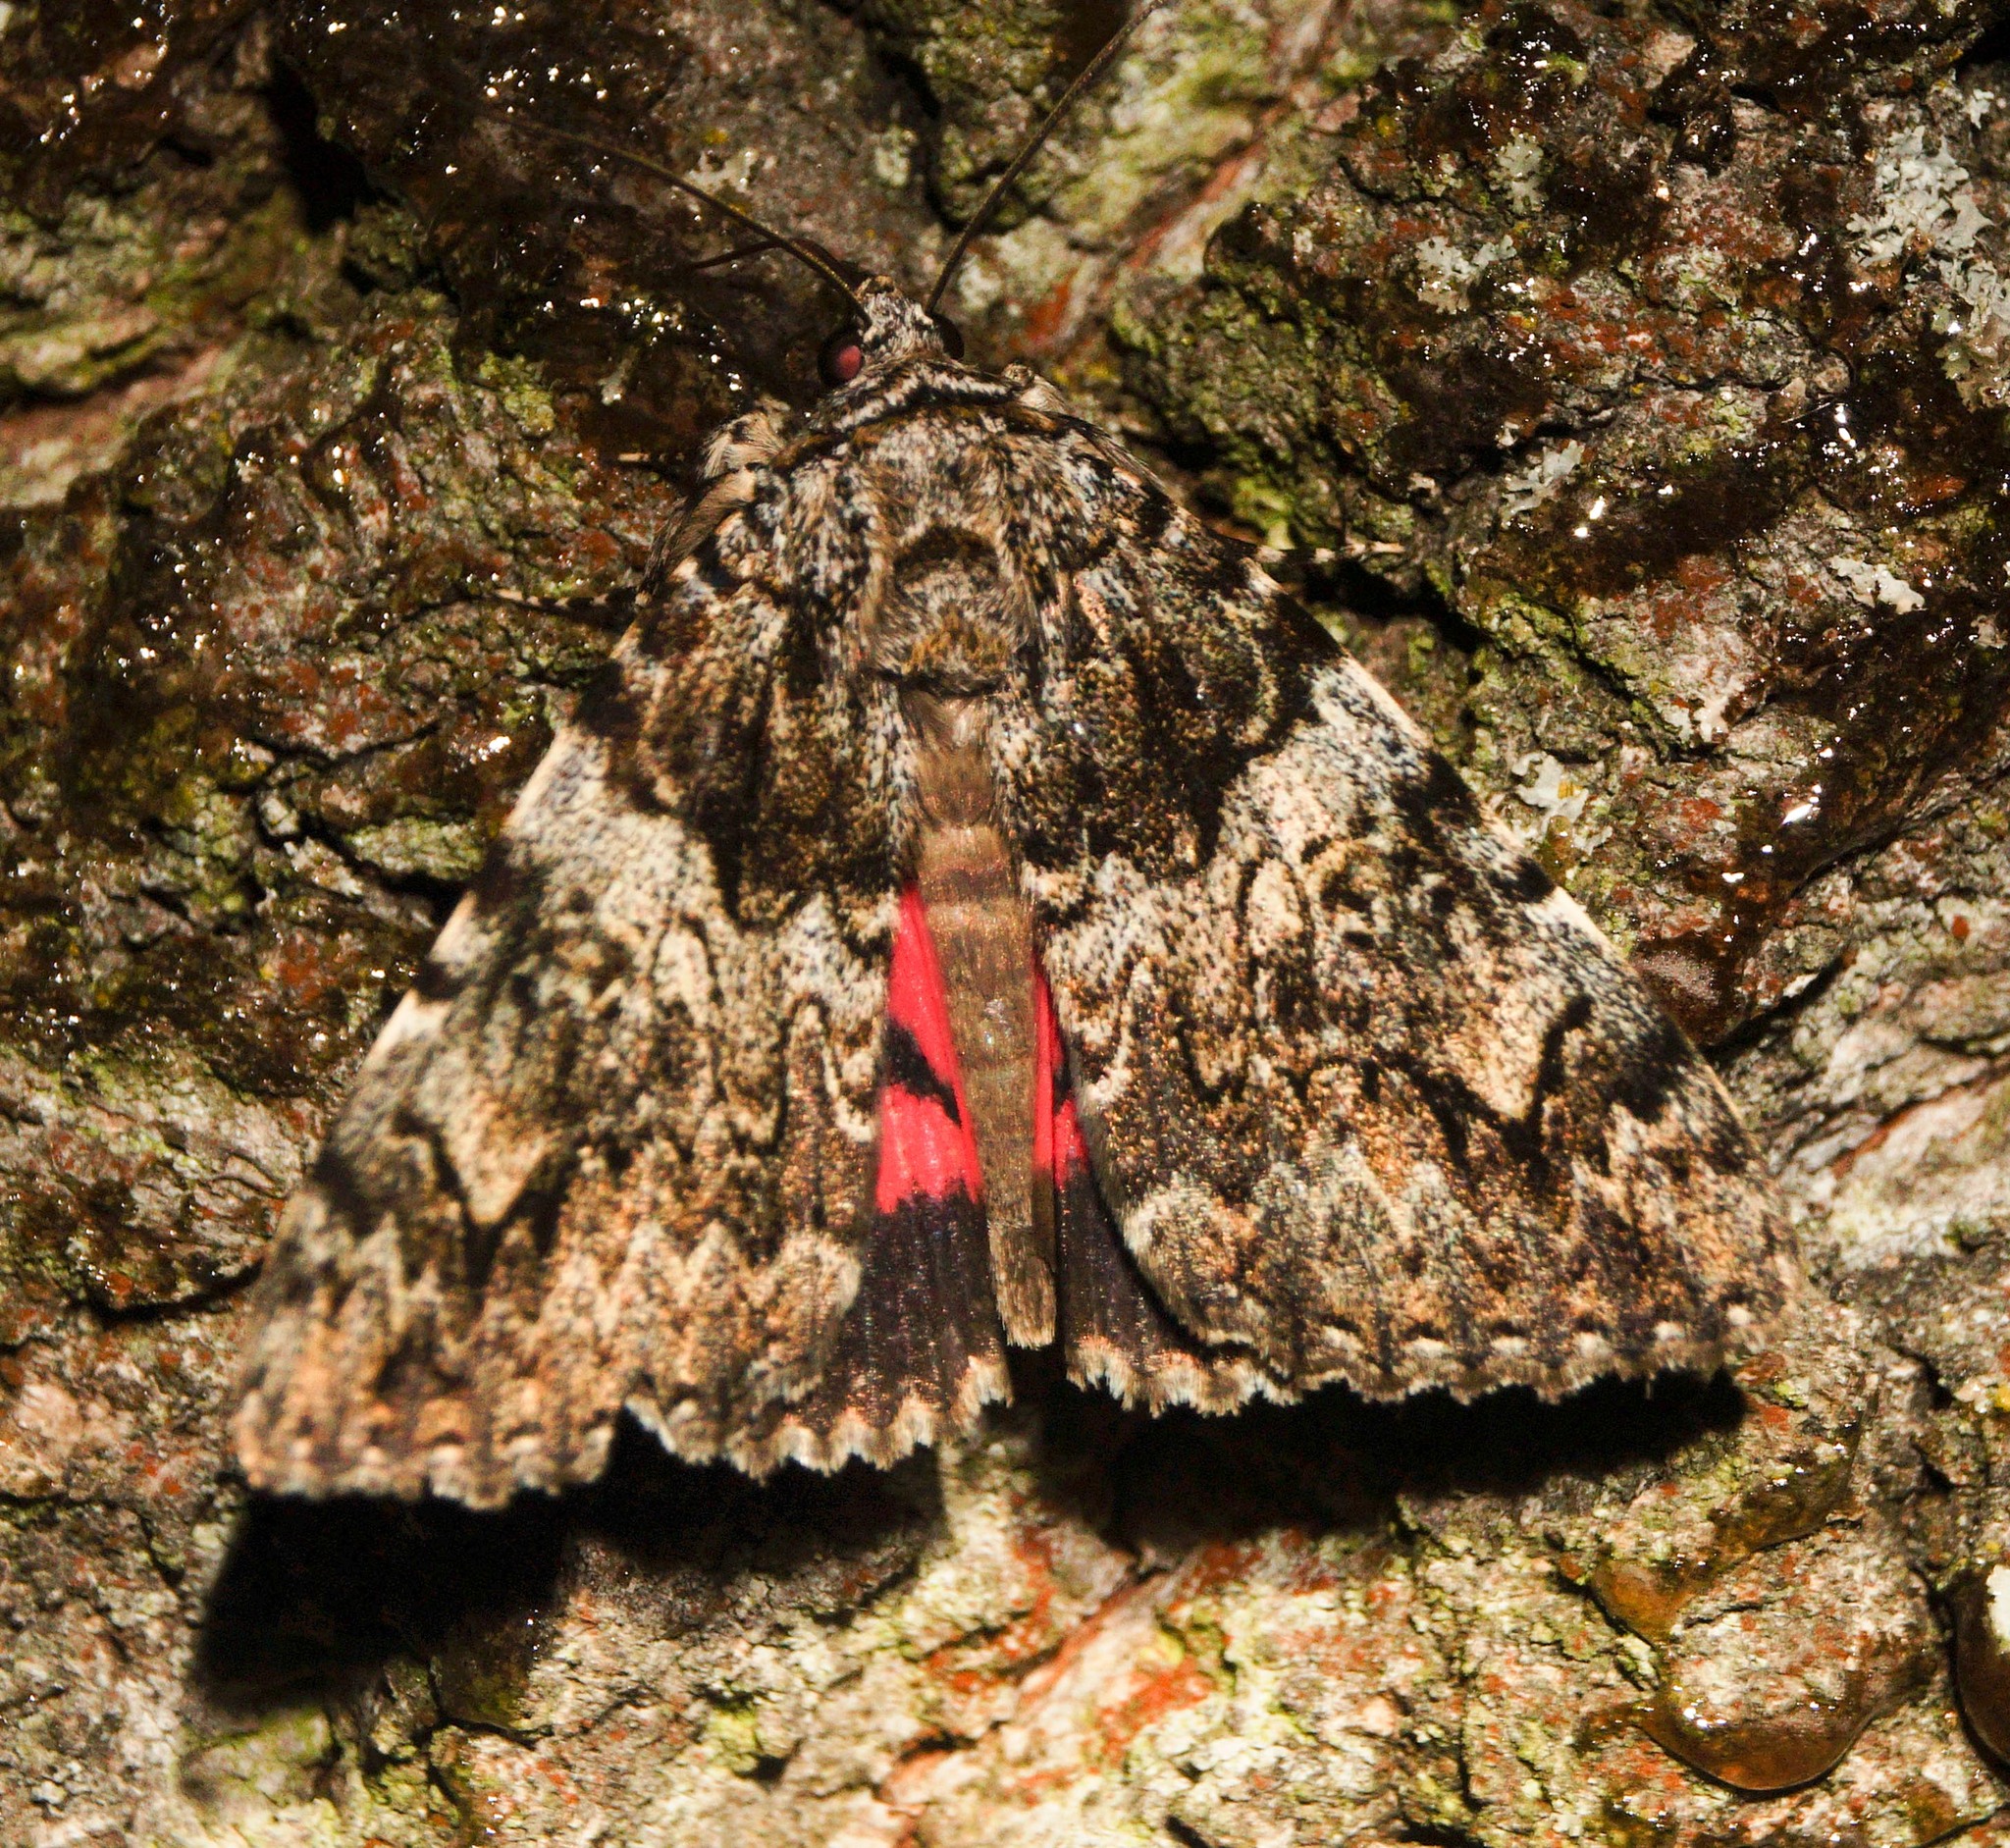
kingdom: Animalia
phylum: Arthropoda
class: Insecta
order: Lepidoptera
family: Erebidae
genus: Catocala
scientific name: Catocala promissa
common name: Light crimson underwing
